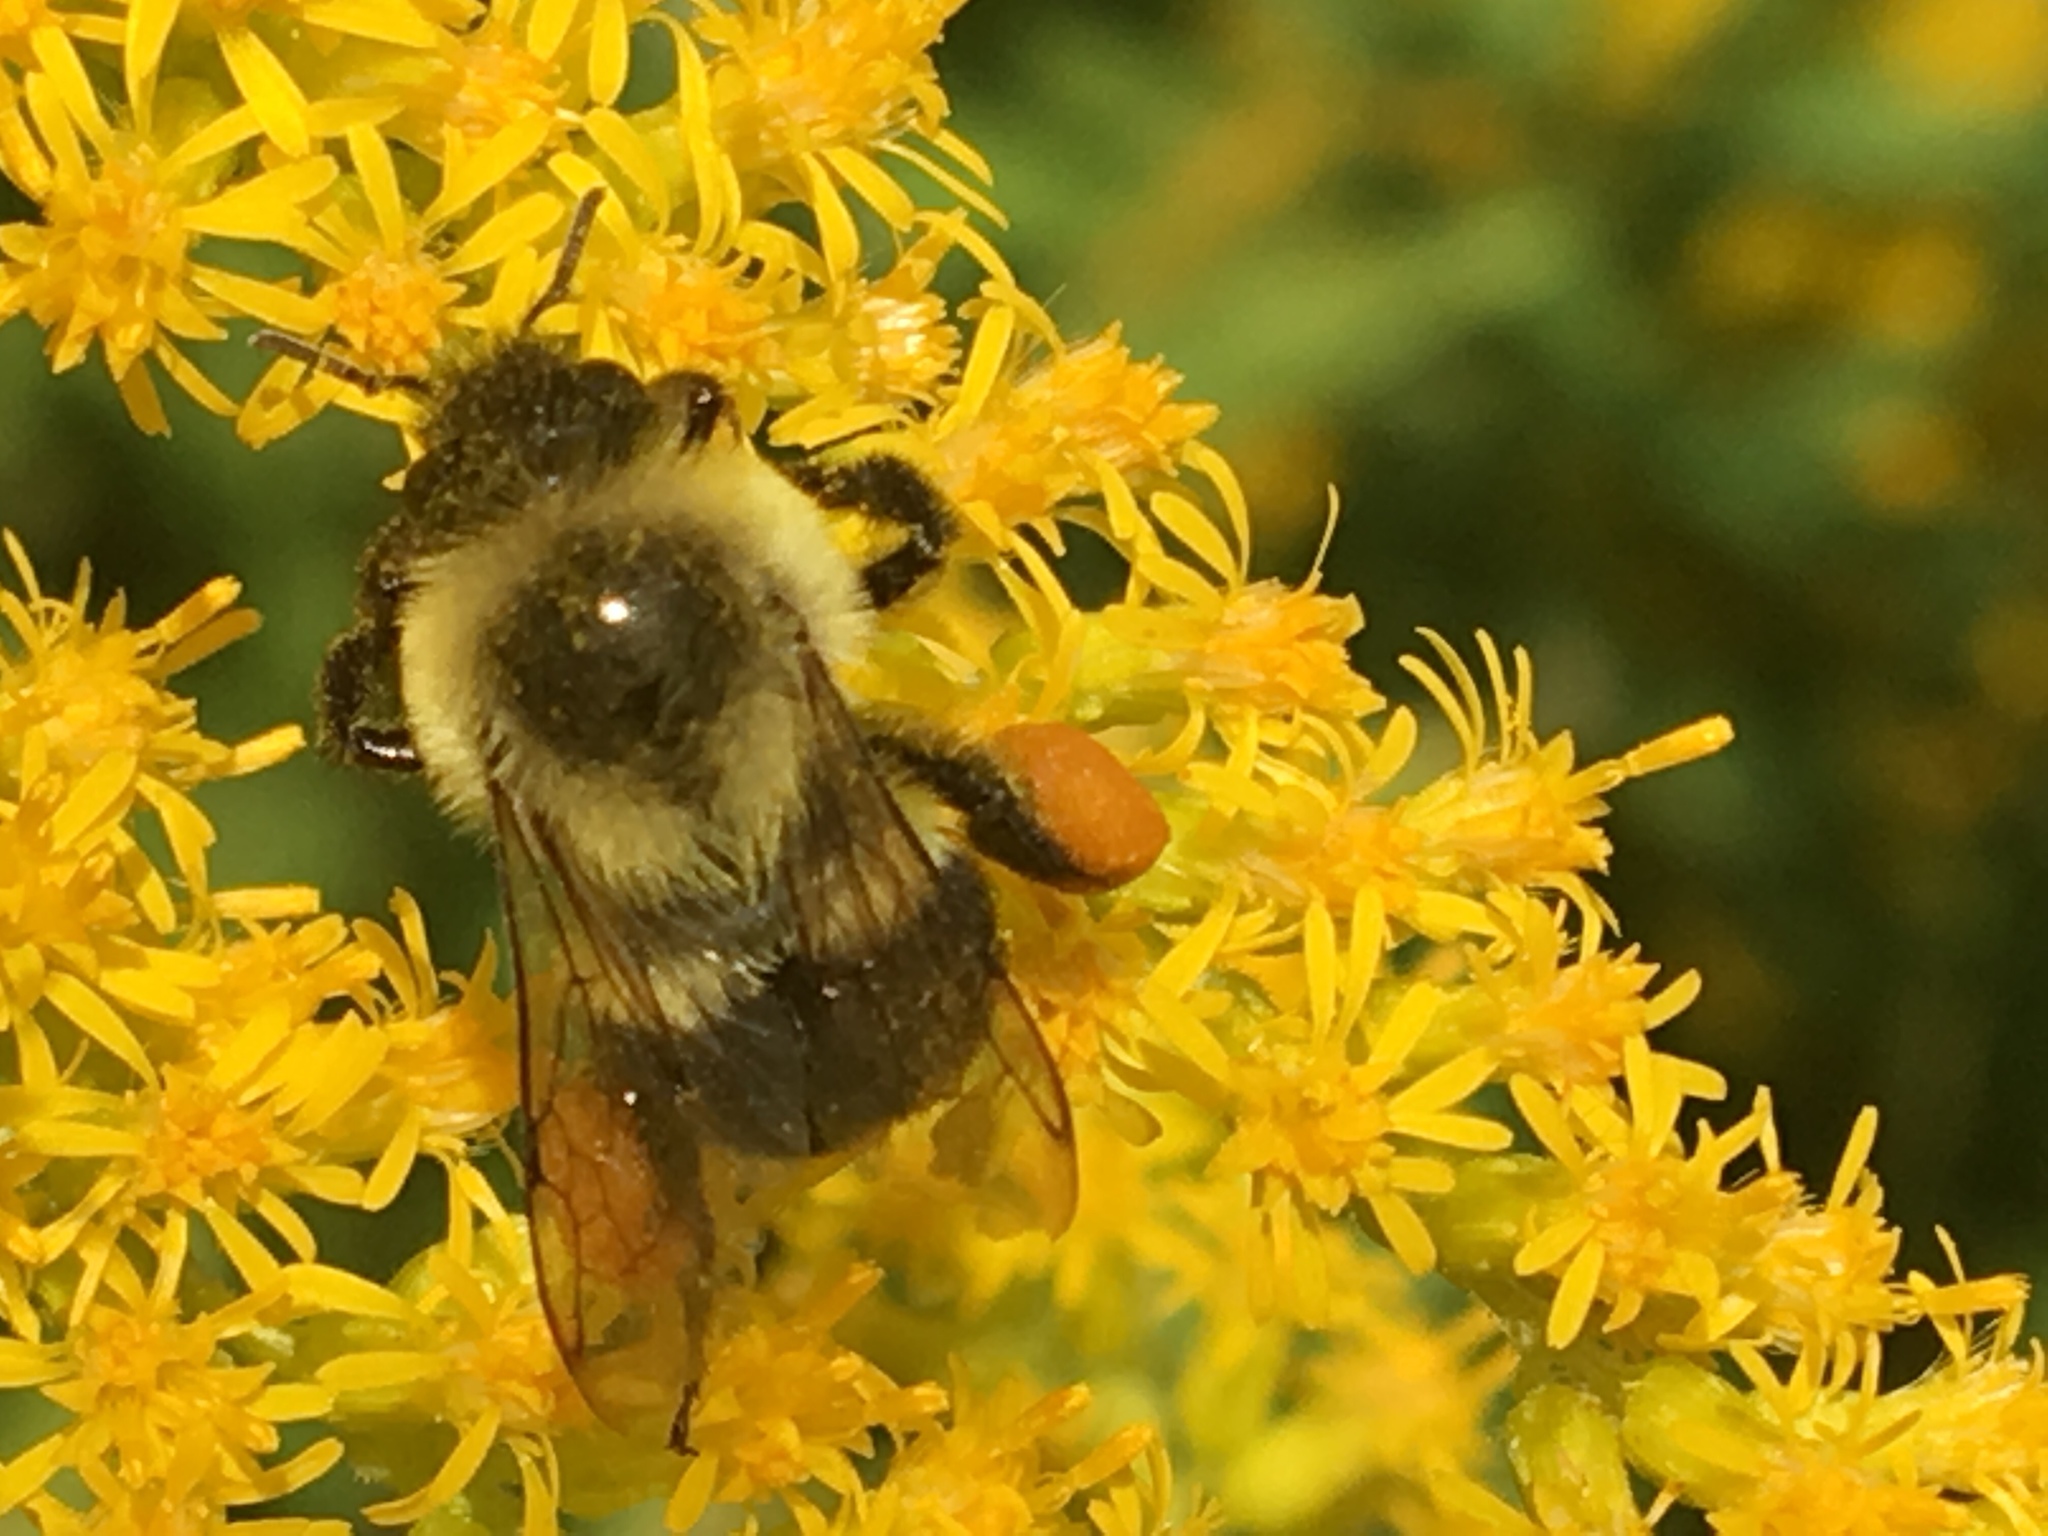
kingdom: Animalia
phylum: Arthropoda
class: Insecta
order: Hymenoptera
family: Apidae
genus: Bombus
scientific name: Bombus impatiens
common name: Common eastern bumble bee
